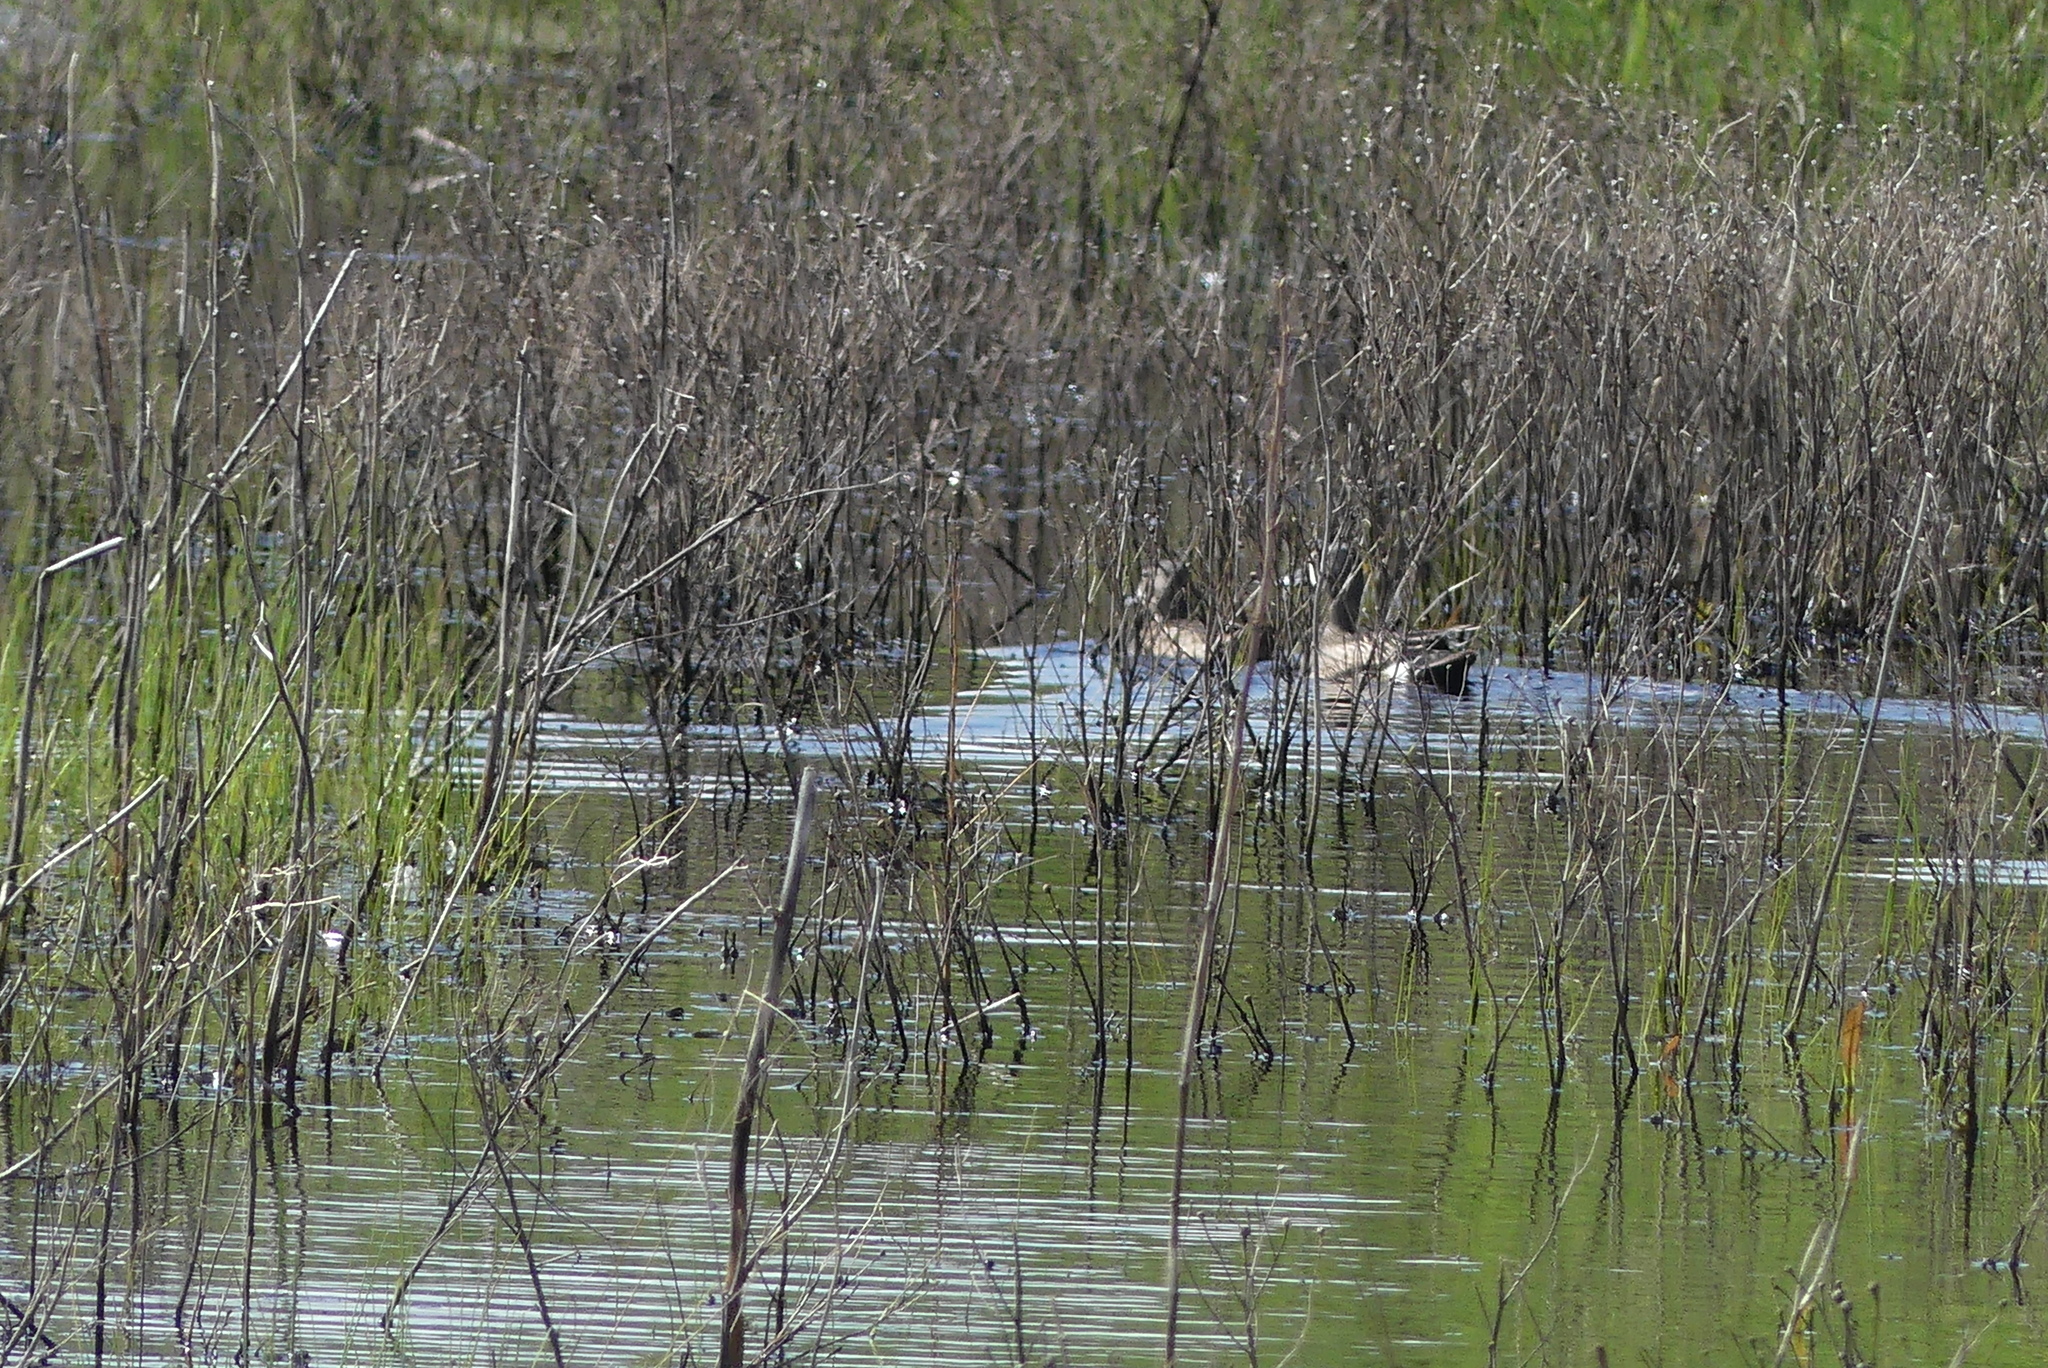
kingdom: Animalia
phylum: Chordata
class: Aves
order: Anseriformes
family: Anatidae
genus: Spatula
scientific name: Spatula discors
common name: Blue-winged teal
